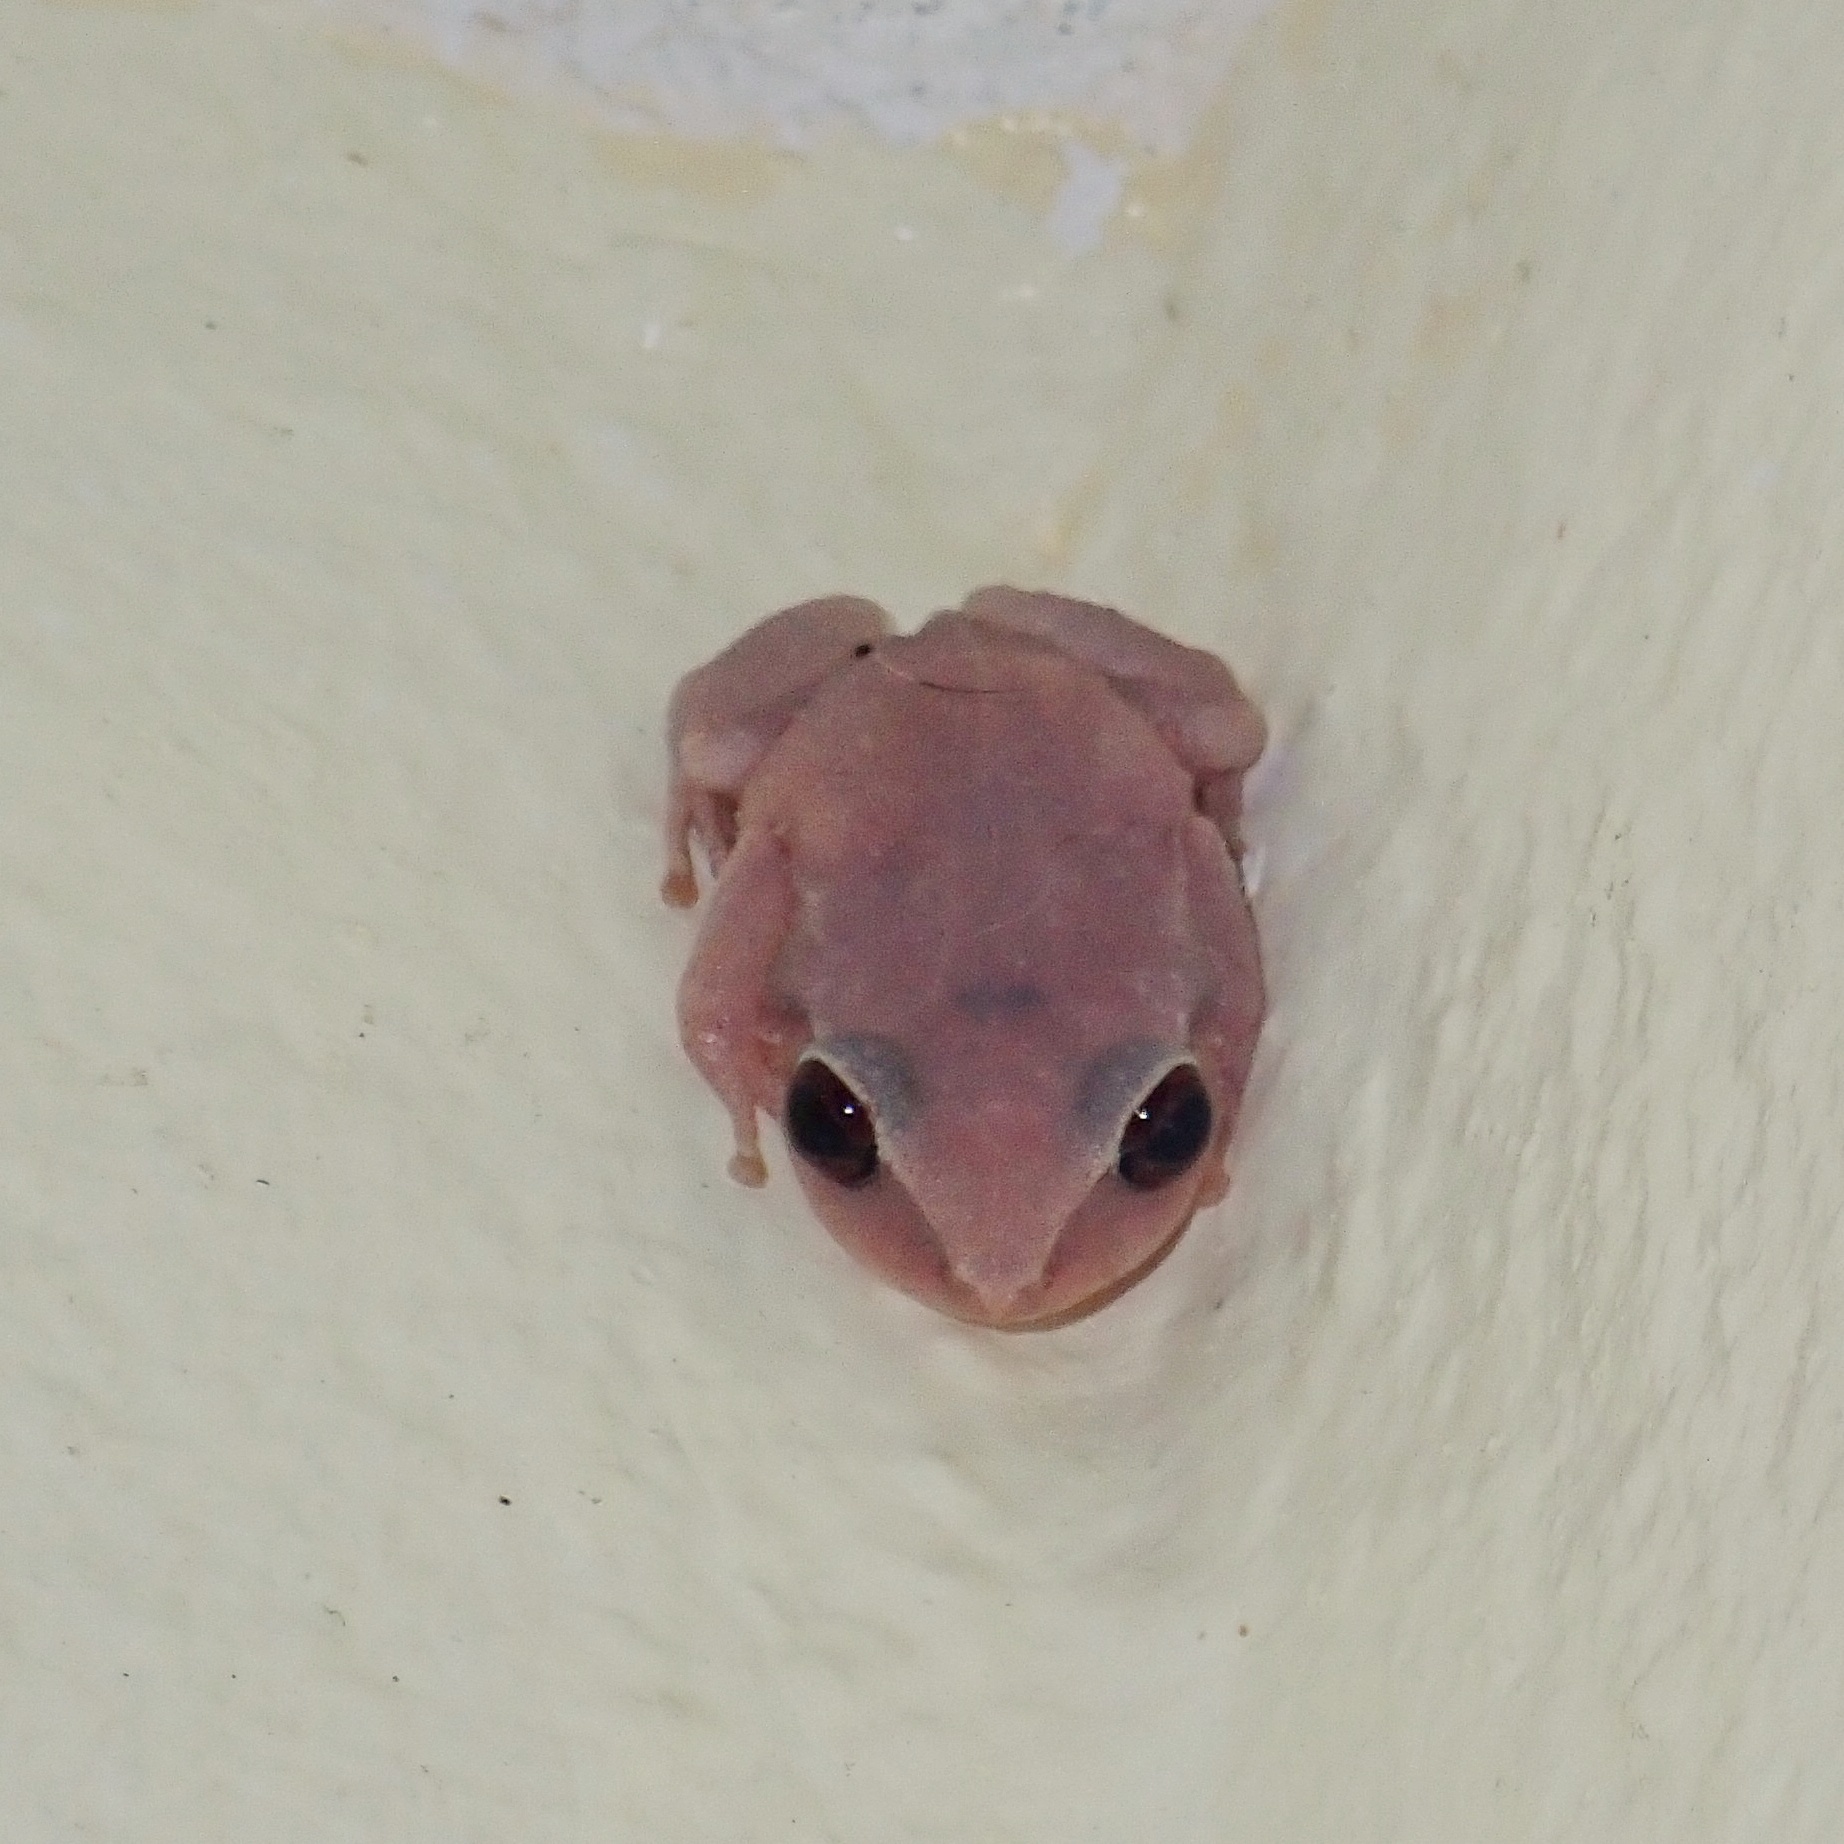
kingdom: Animalia
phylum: Chordata
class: Amphibia
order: Anura
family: Eleutherodactylidae
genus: Eleutherodactylus
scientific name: Eleutherodactylus antillensis
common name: Antillean coqui
